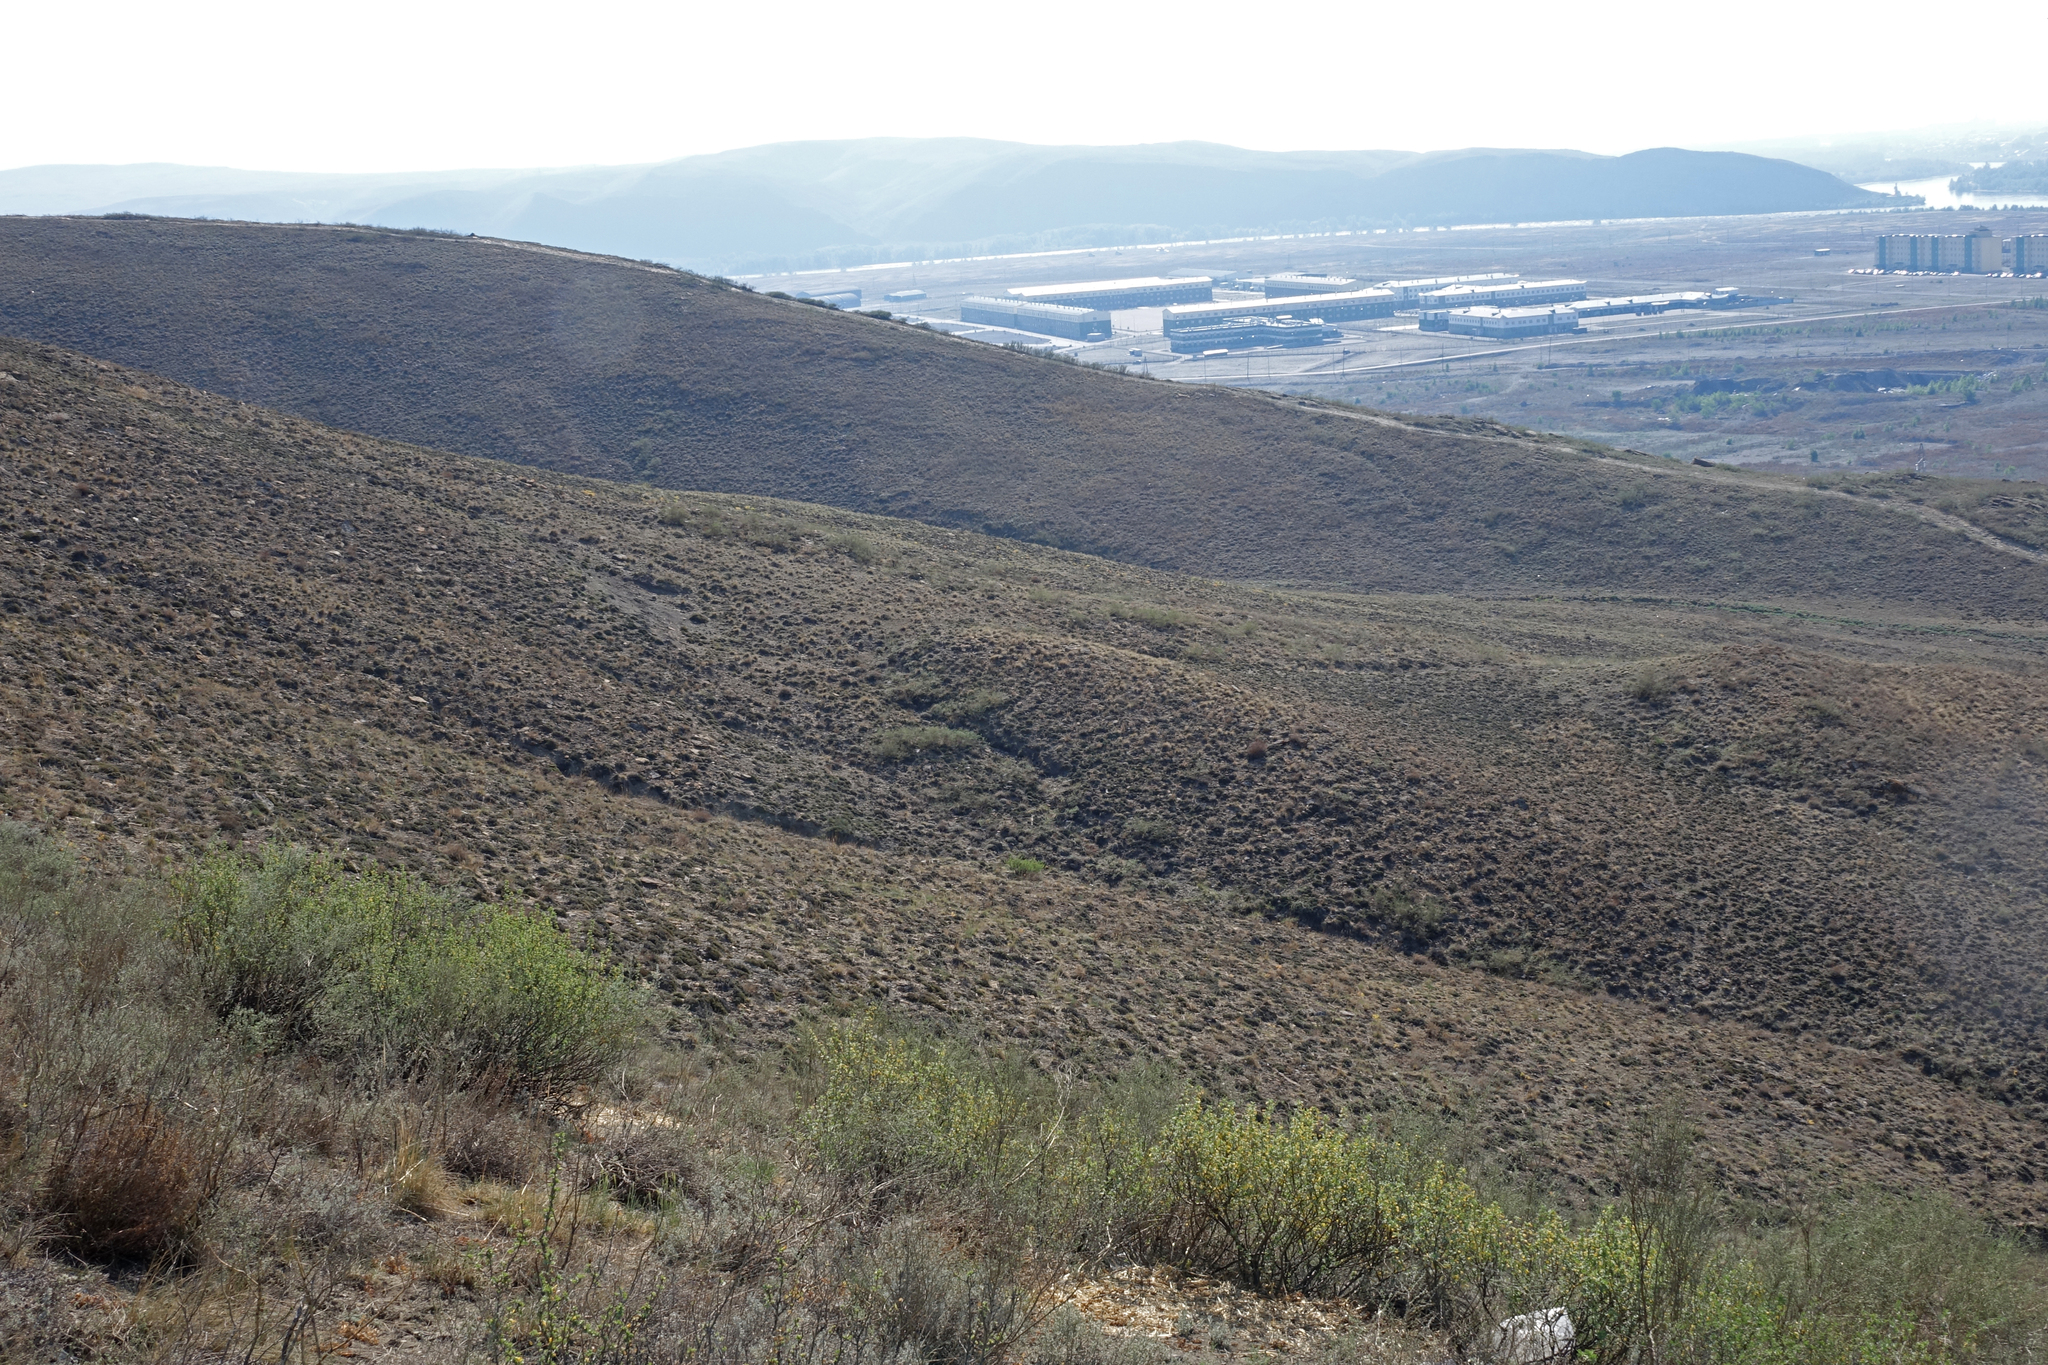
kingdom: Plantae
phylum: Tracheophyta
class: Magnoliopsida
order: Fabales
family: Fabaceae
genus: Caragana
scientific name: Caragana bungei
